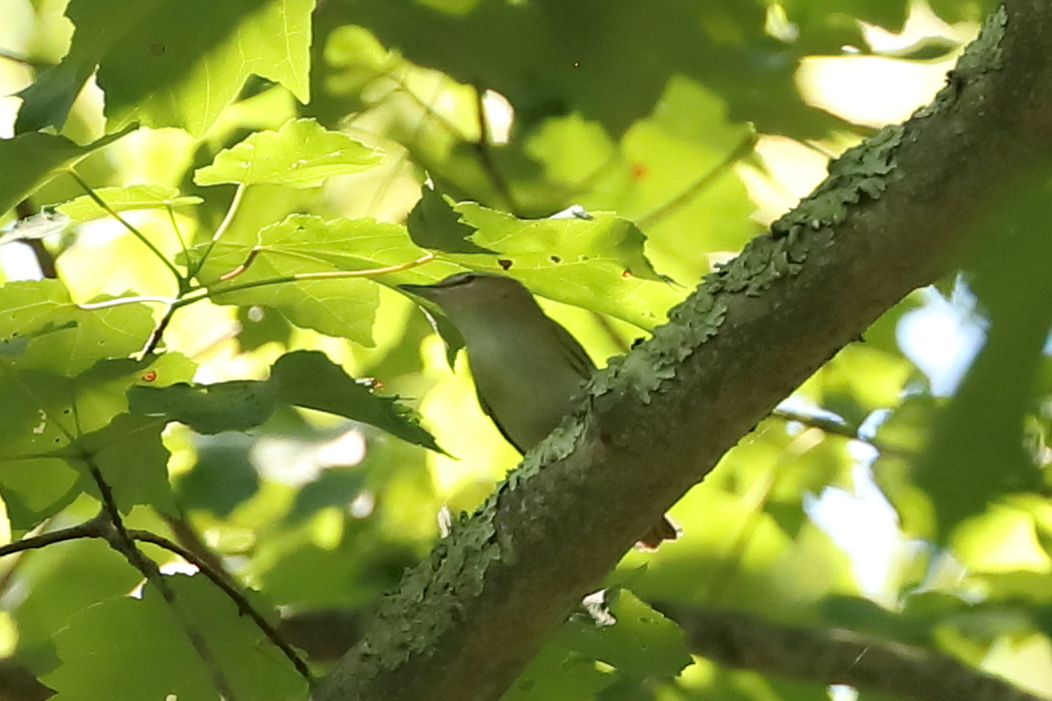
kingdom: Animalia
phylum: Chordata
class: Aves
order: Passeriformes
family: Vireonidae
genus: Vireo
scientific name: Vireo olivaceus
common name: Red-eyed vireo
